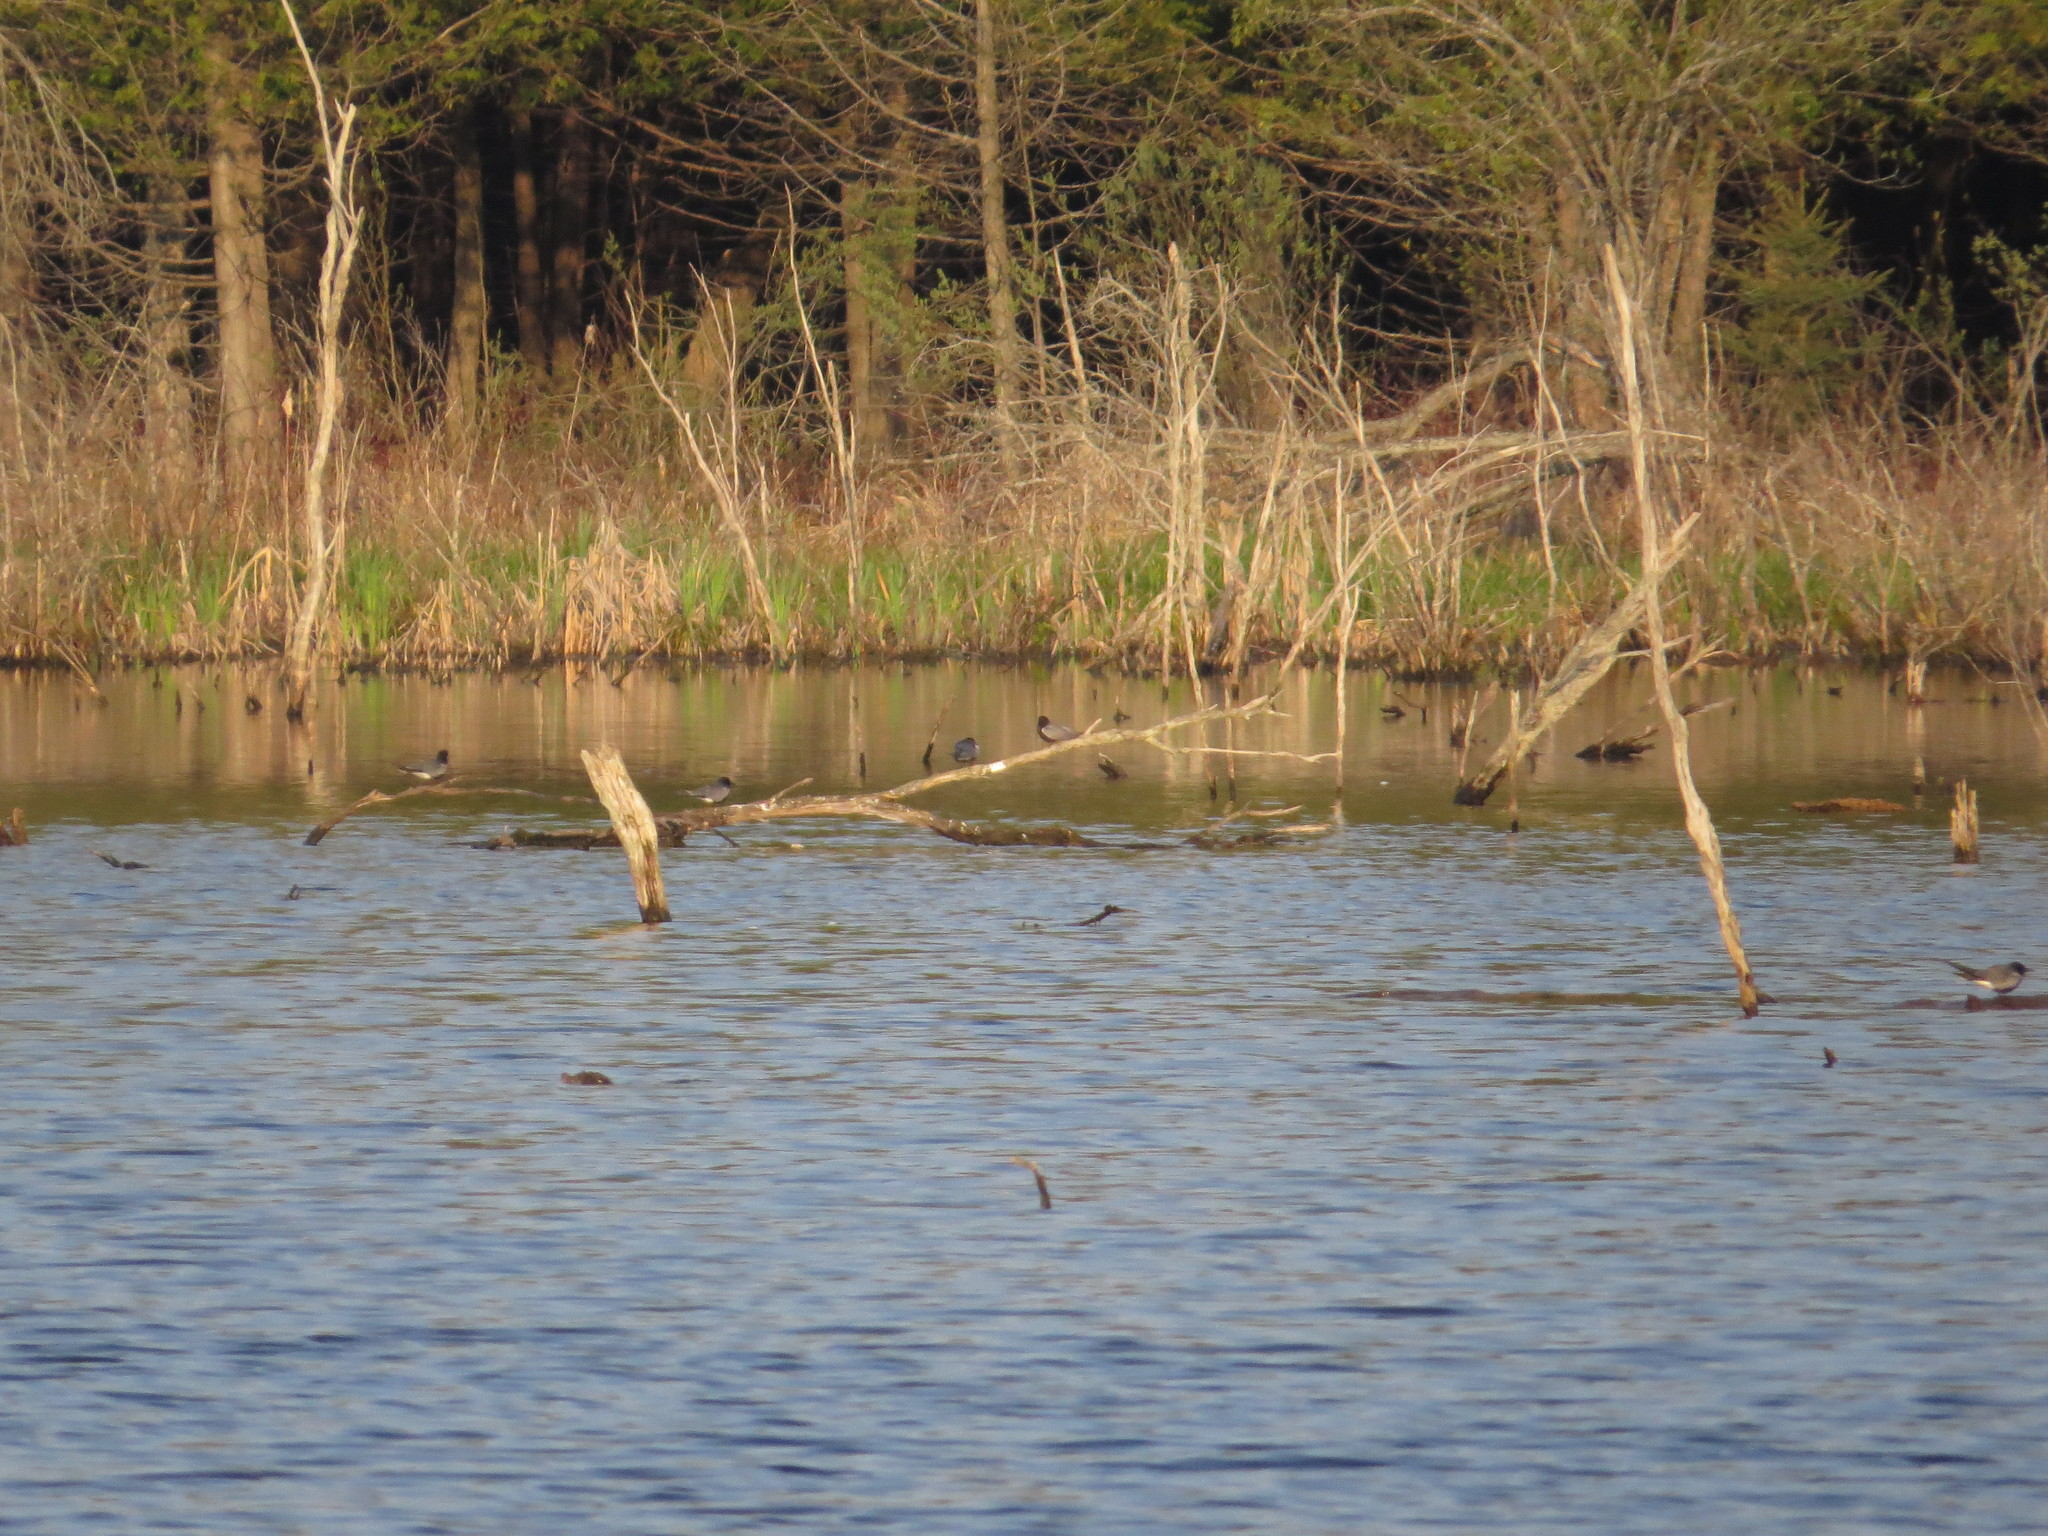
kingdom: Animalia
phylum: Chordata
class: Aves
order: Charadriiformes
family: Laridae
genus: Chlidonias
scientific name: Chlidonias niger
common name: Black tern
